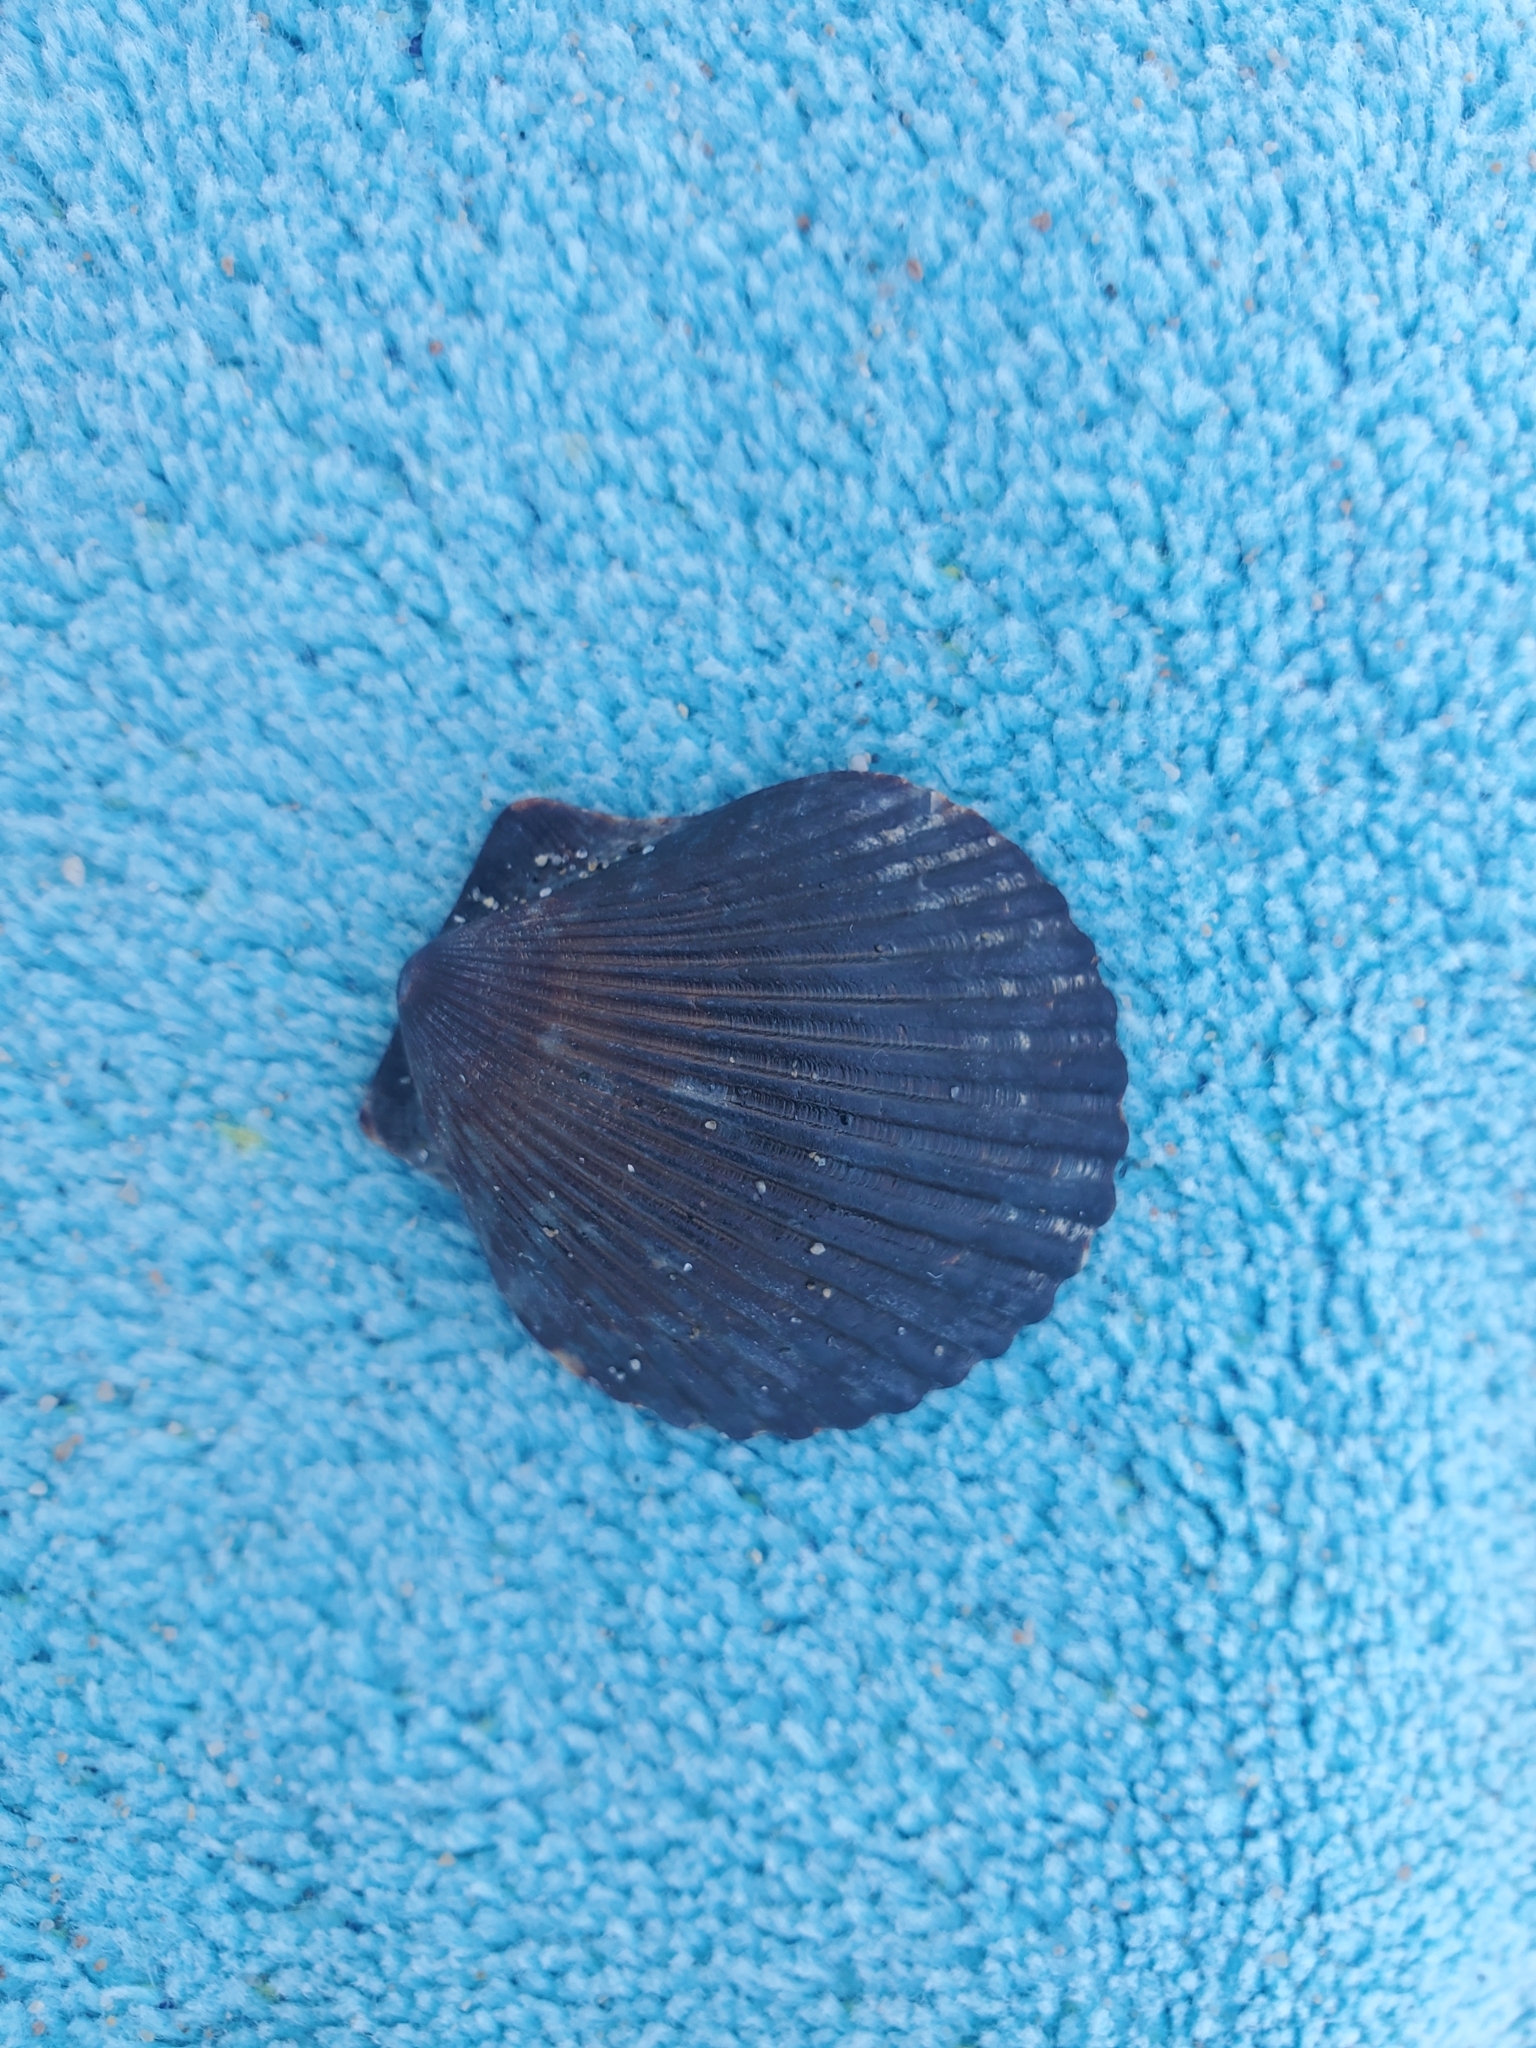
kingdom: Animalia
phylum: Mollusca
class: Bivalvia
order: Pectinida
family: Pectinidae
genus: Argopecten
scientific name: Argopecten ventricosus
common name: Catarina scallop
